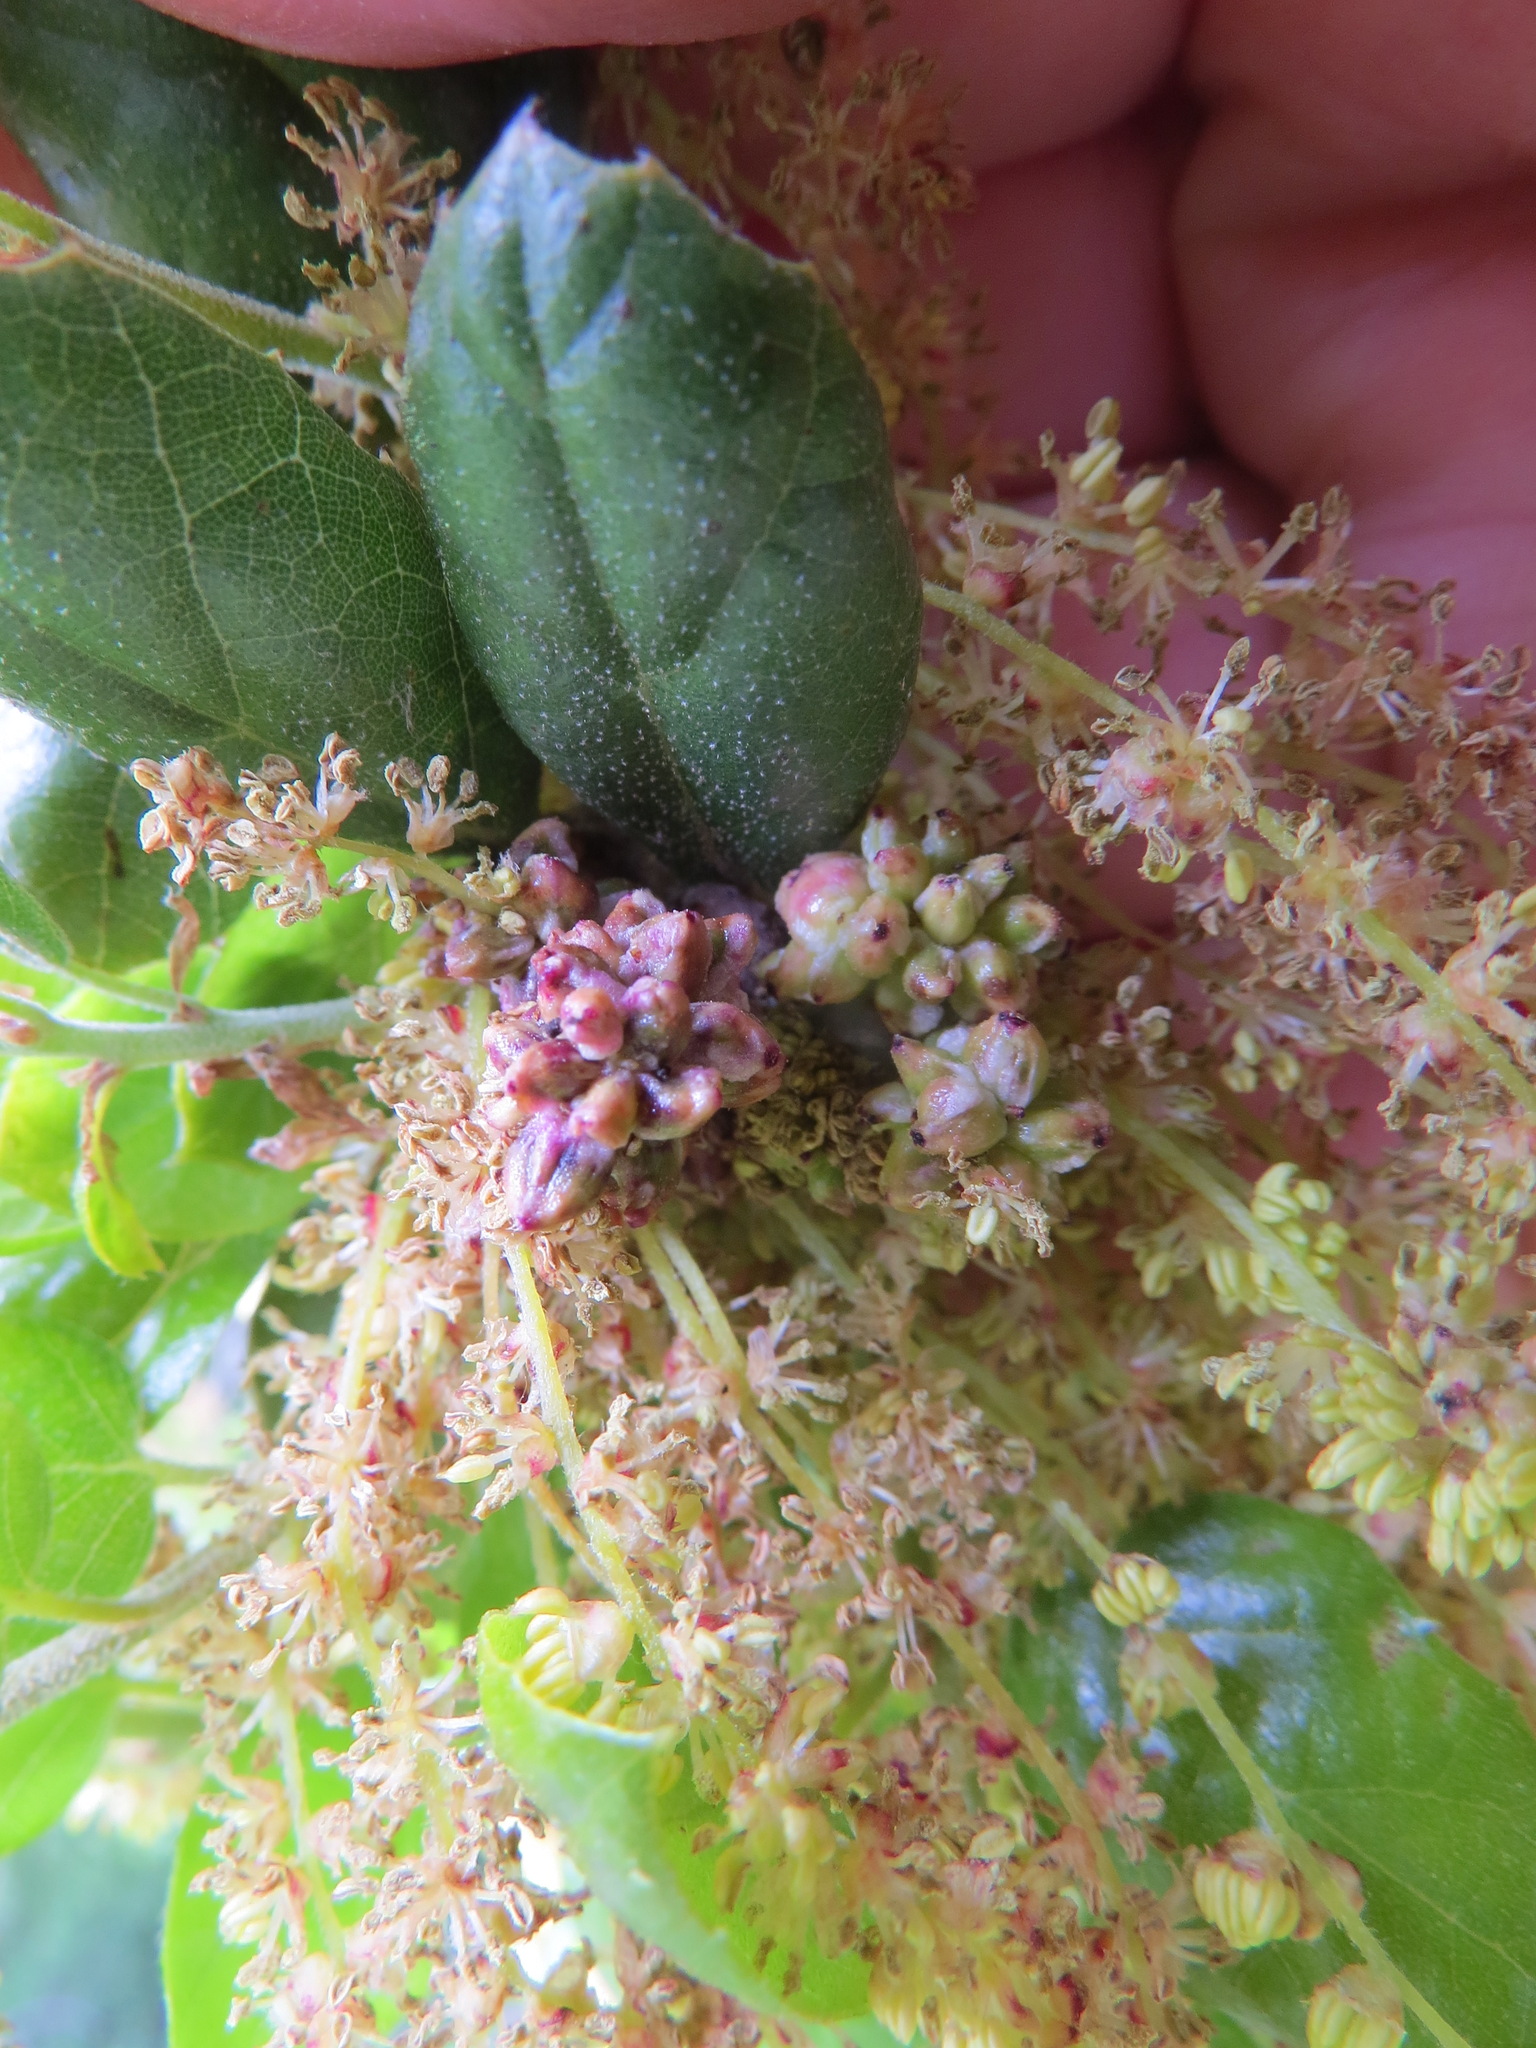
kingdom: Animalia
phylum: Arthropoda
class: Insecta
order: Hymenoptera
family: Cynipidae
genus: Callirhytis
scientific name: Callirhytis
